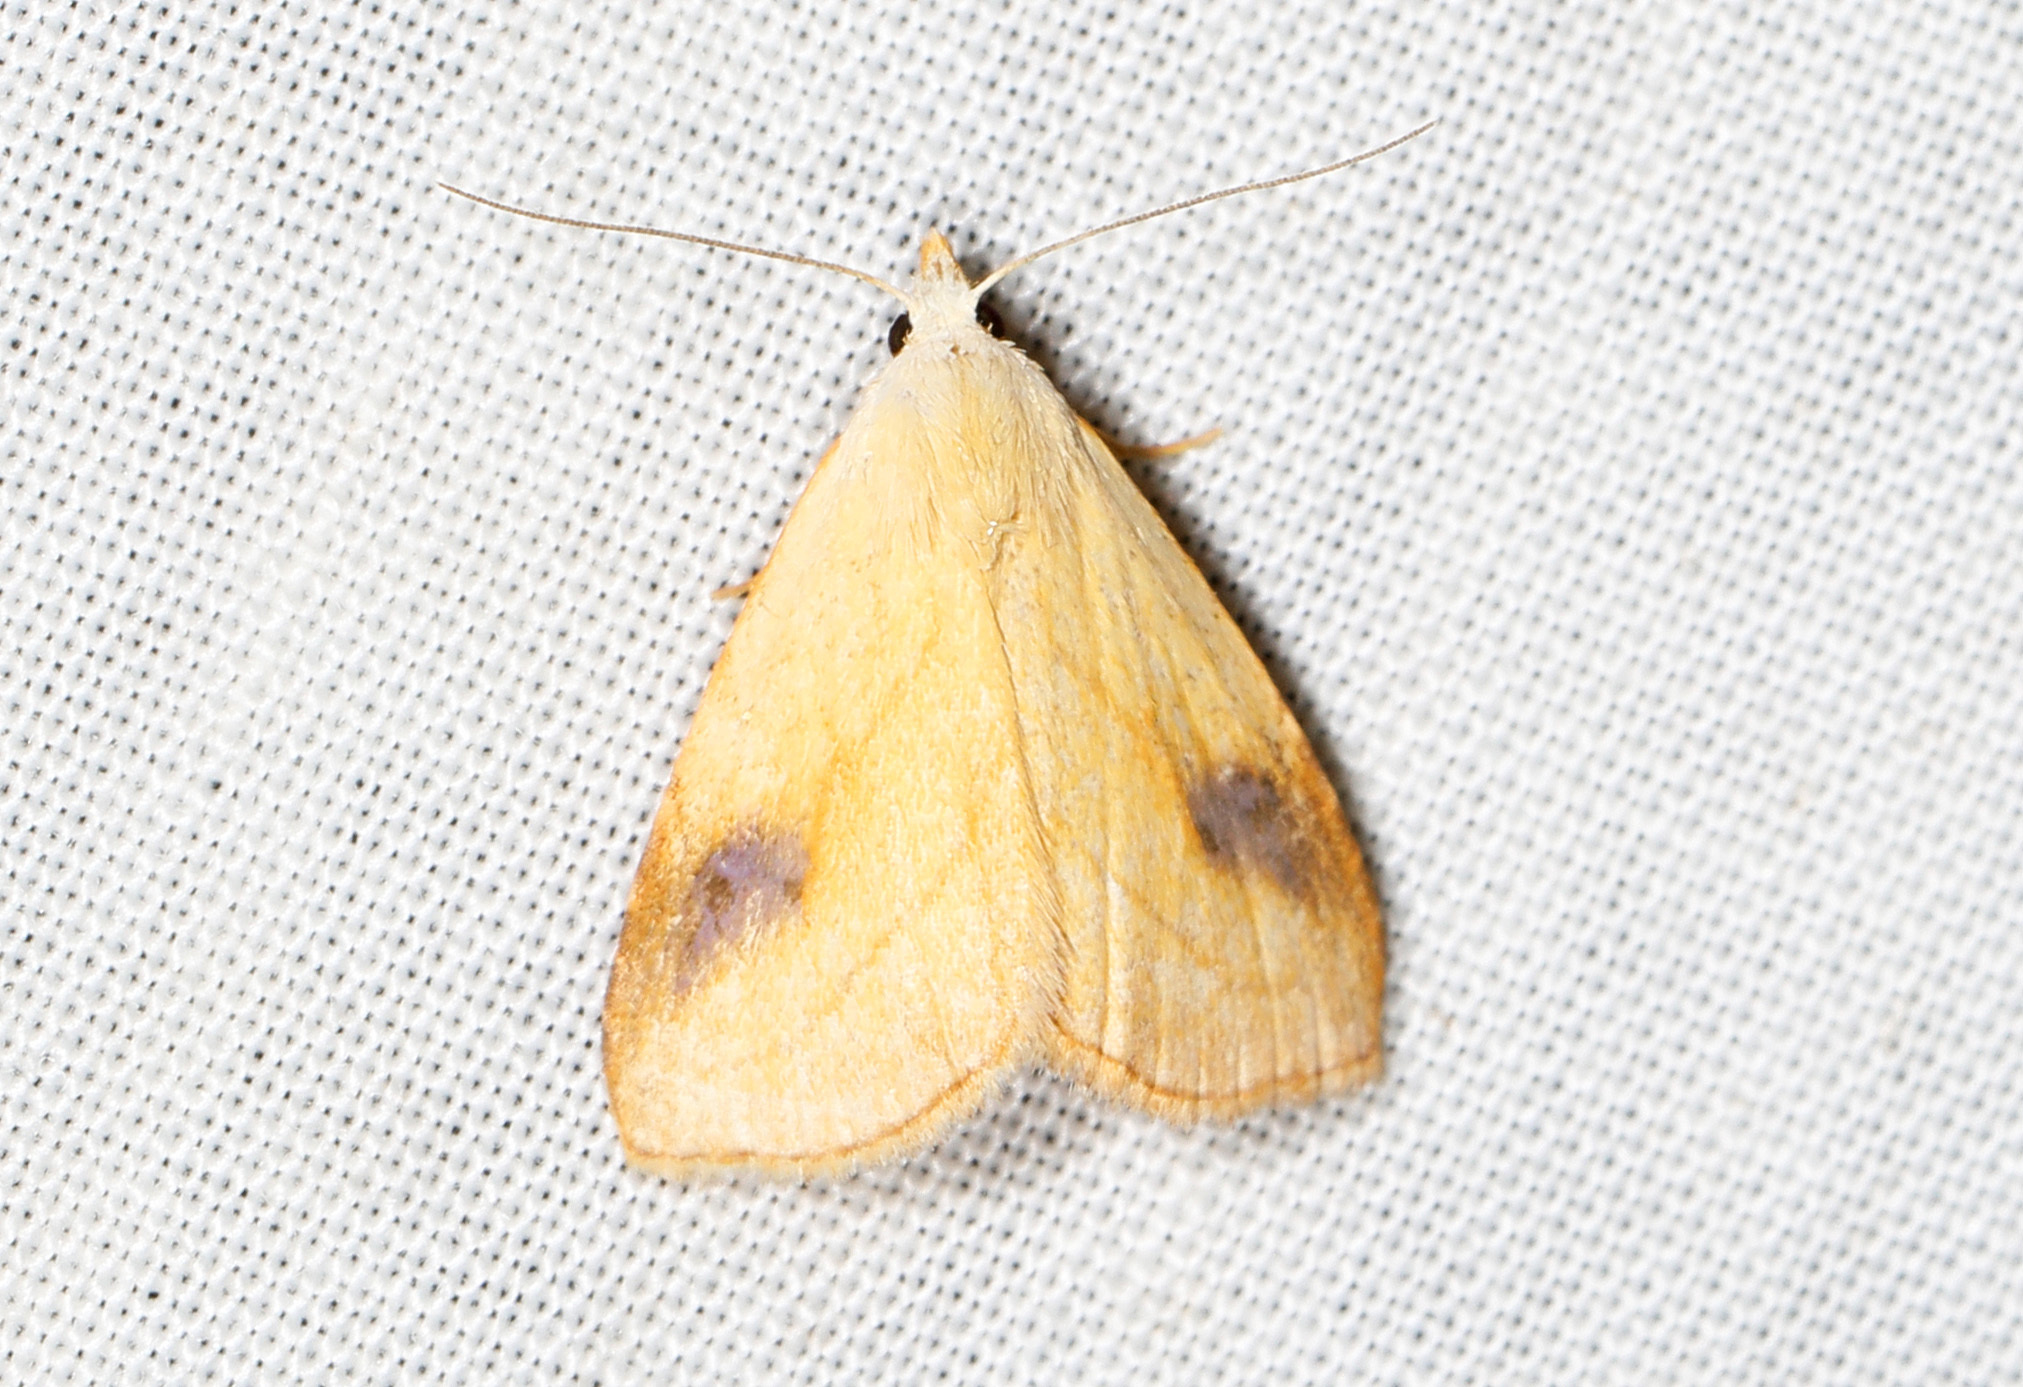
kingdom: Animalia
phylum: Arthropoda
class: Insecta
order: Lepidoptera
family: Erebidae
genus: Rivula
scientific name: Rivula propinqualis
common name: Spotted grass moth
